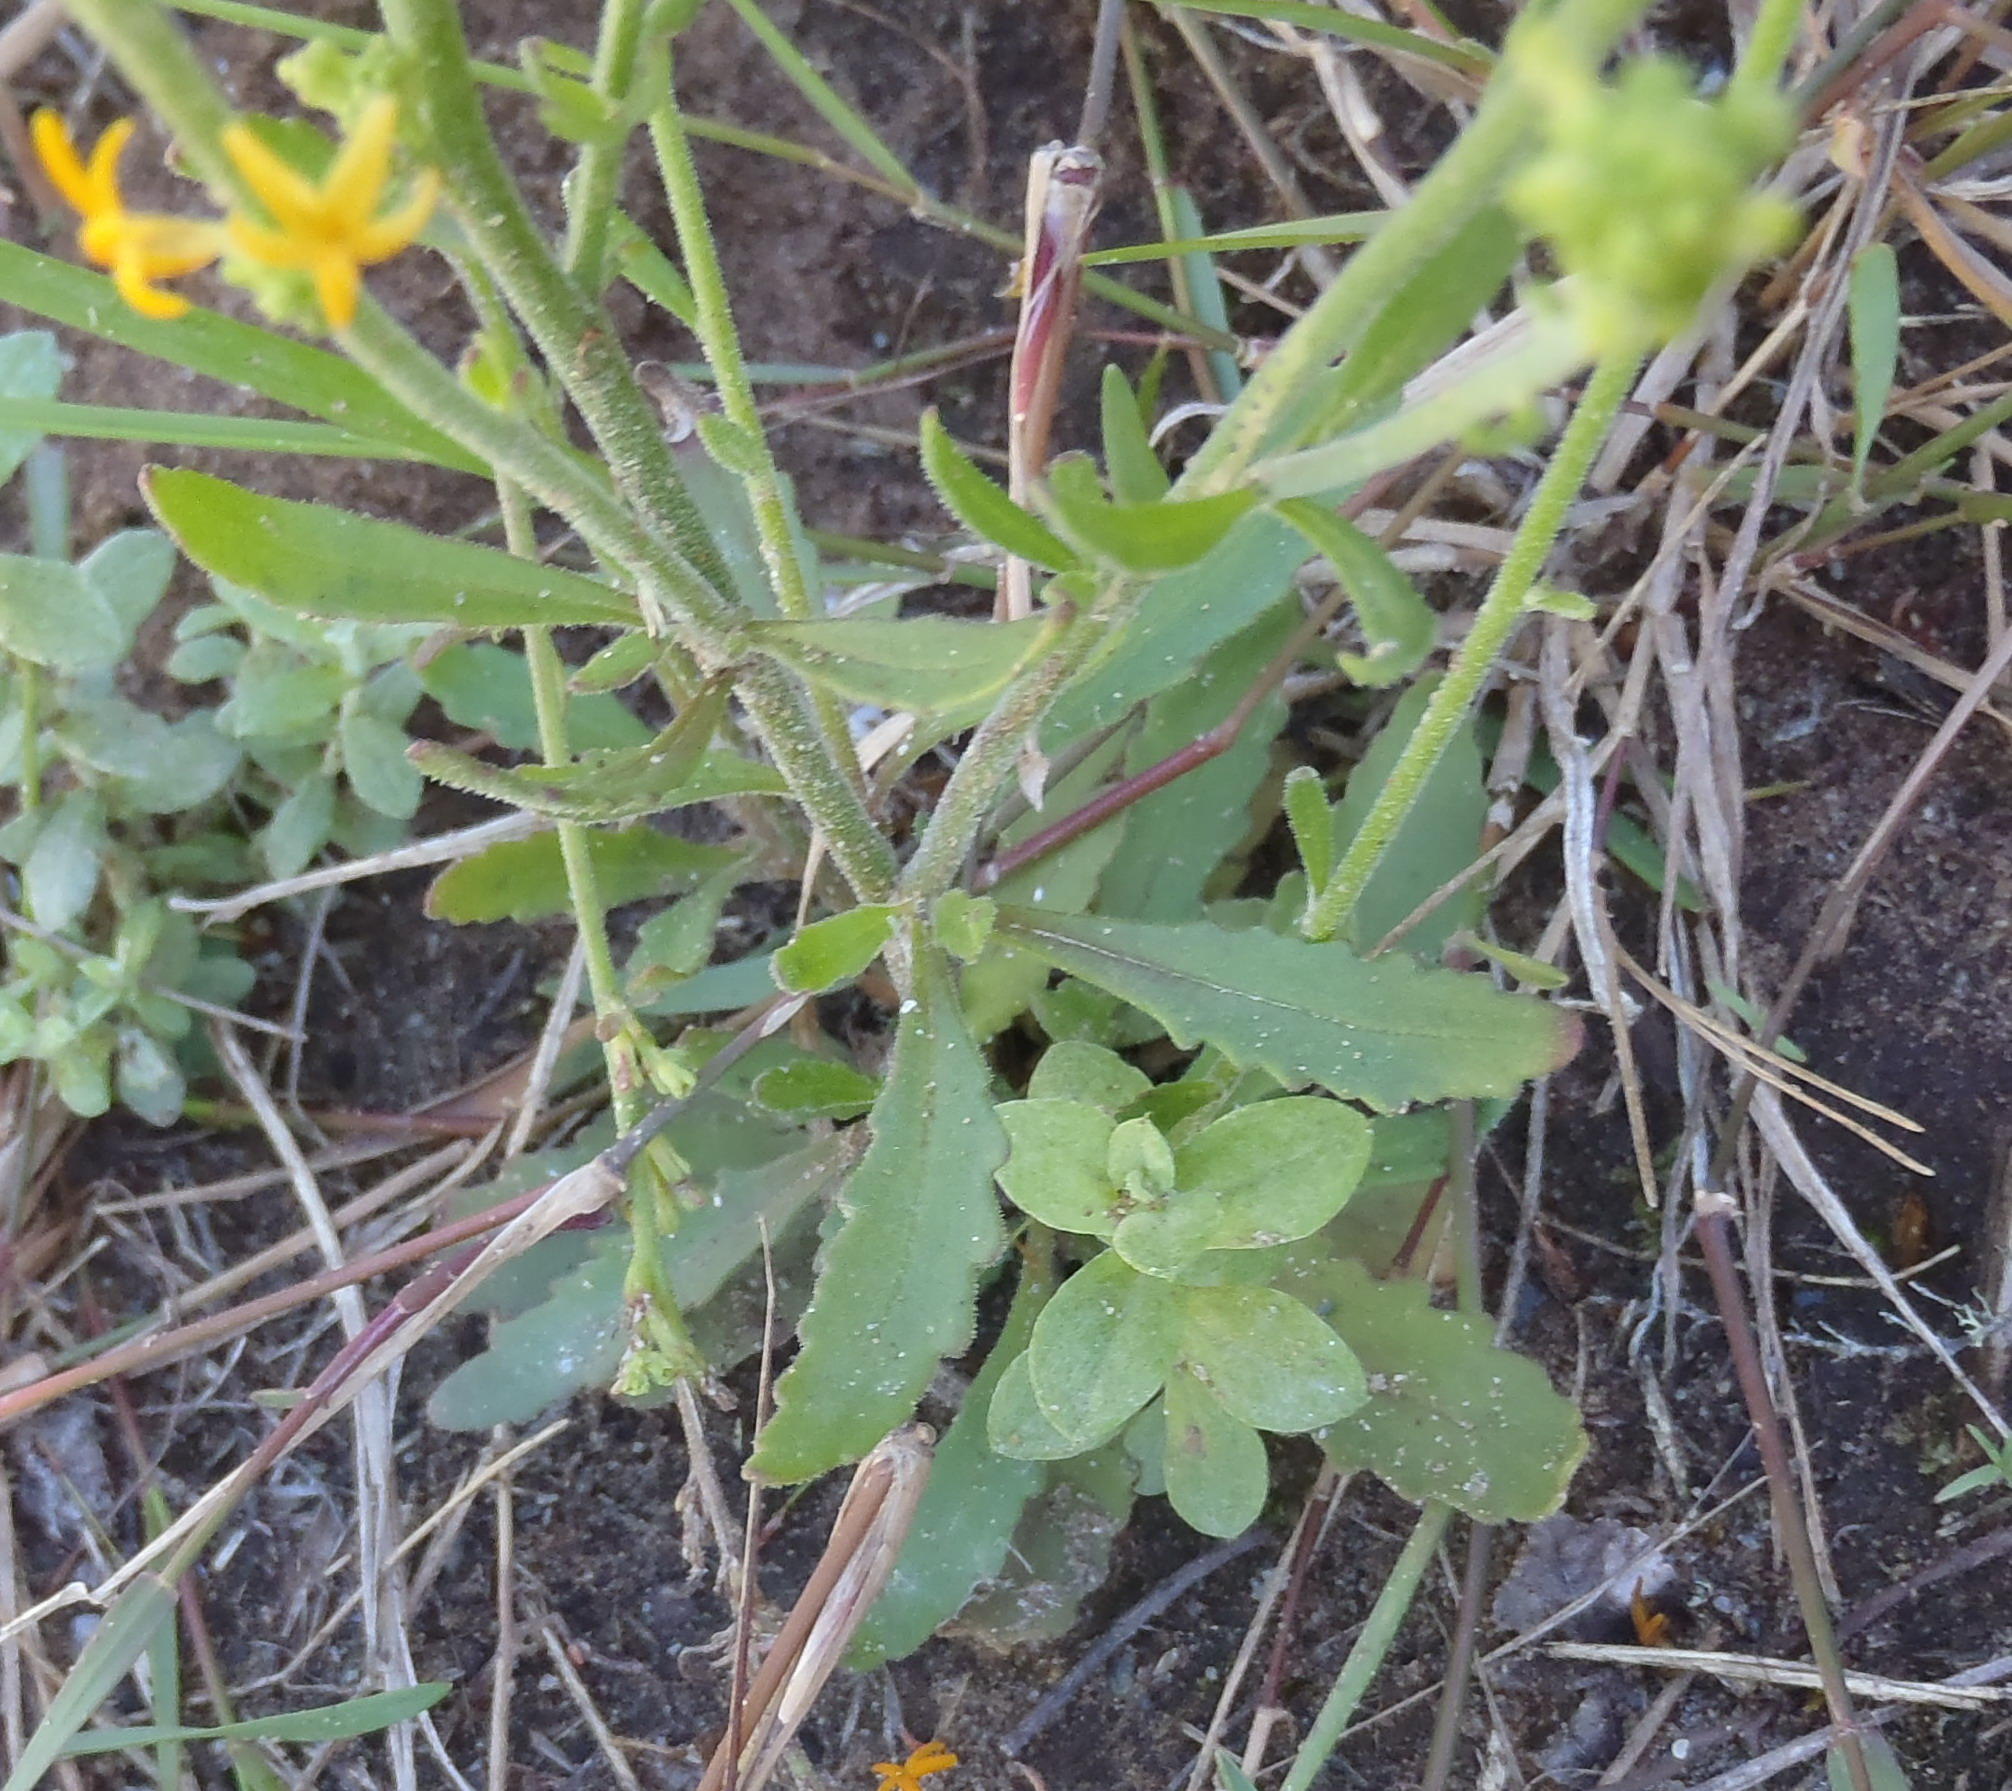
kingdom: Plantae
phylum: Tracheophyta
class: Magnoliopsida
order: Lamiales
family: Scrophulariaceae
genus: Manulea
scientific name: Manulea obovata
